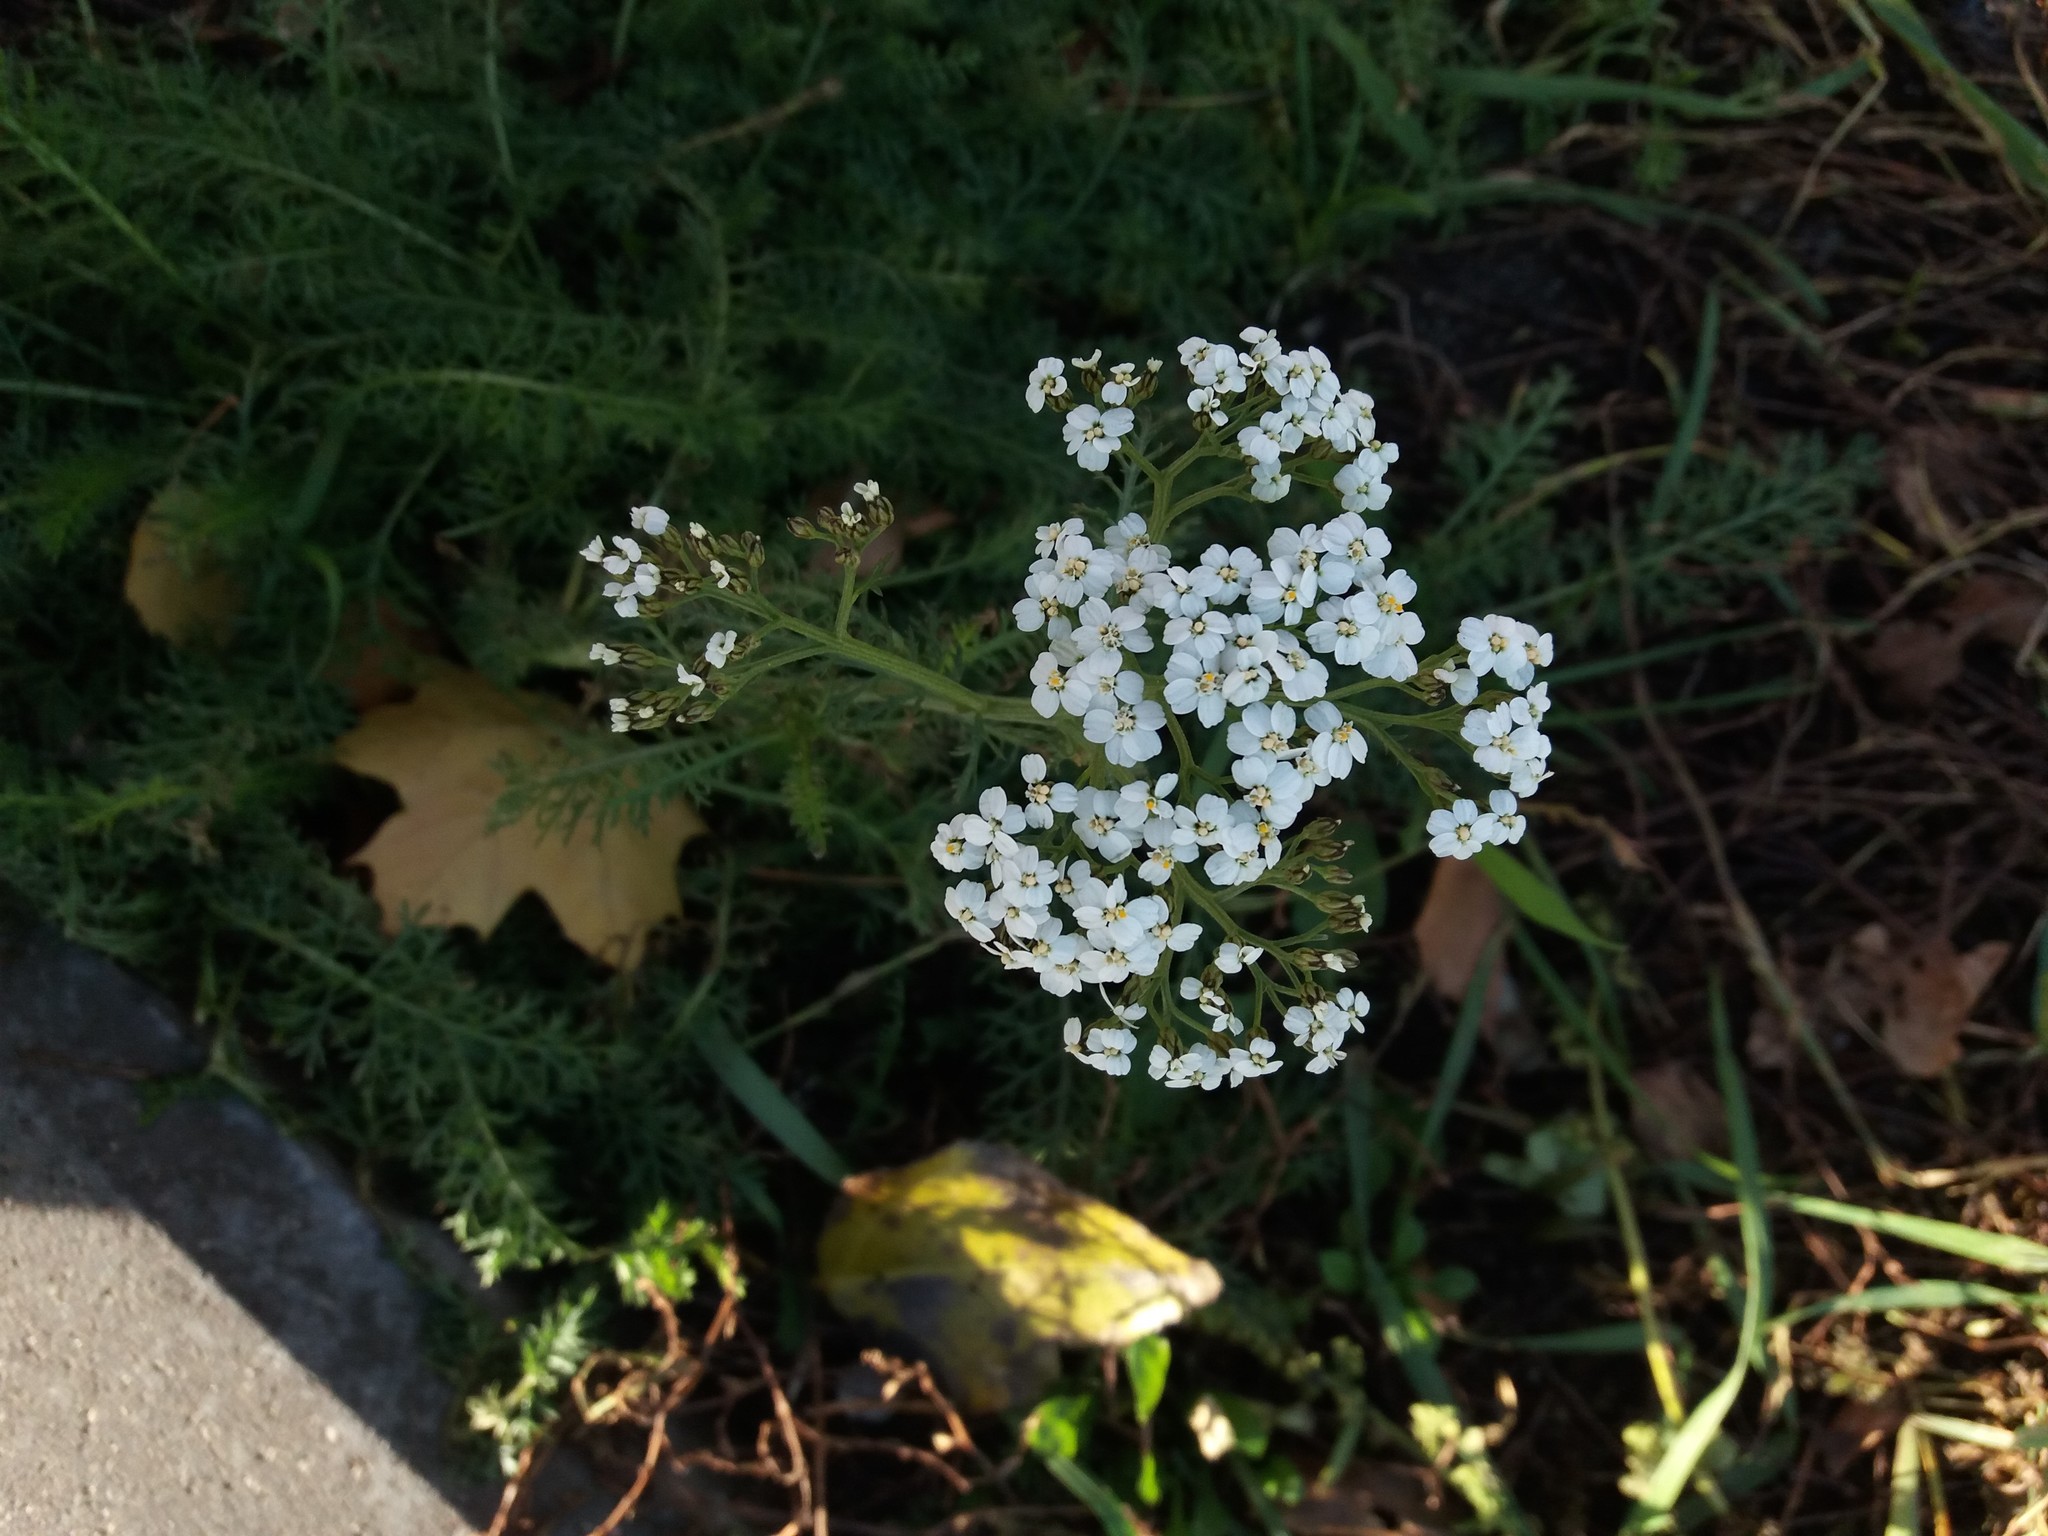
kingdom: Plantae
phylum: Tracheophyta
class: Magnoliopsida
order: Asterales
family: Asteraceae
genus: Achillea
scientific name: Achillea millefolium
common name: Yarrow
